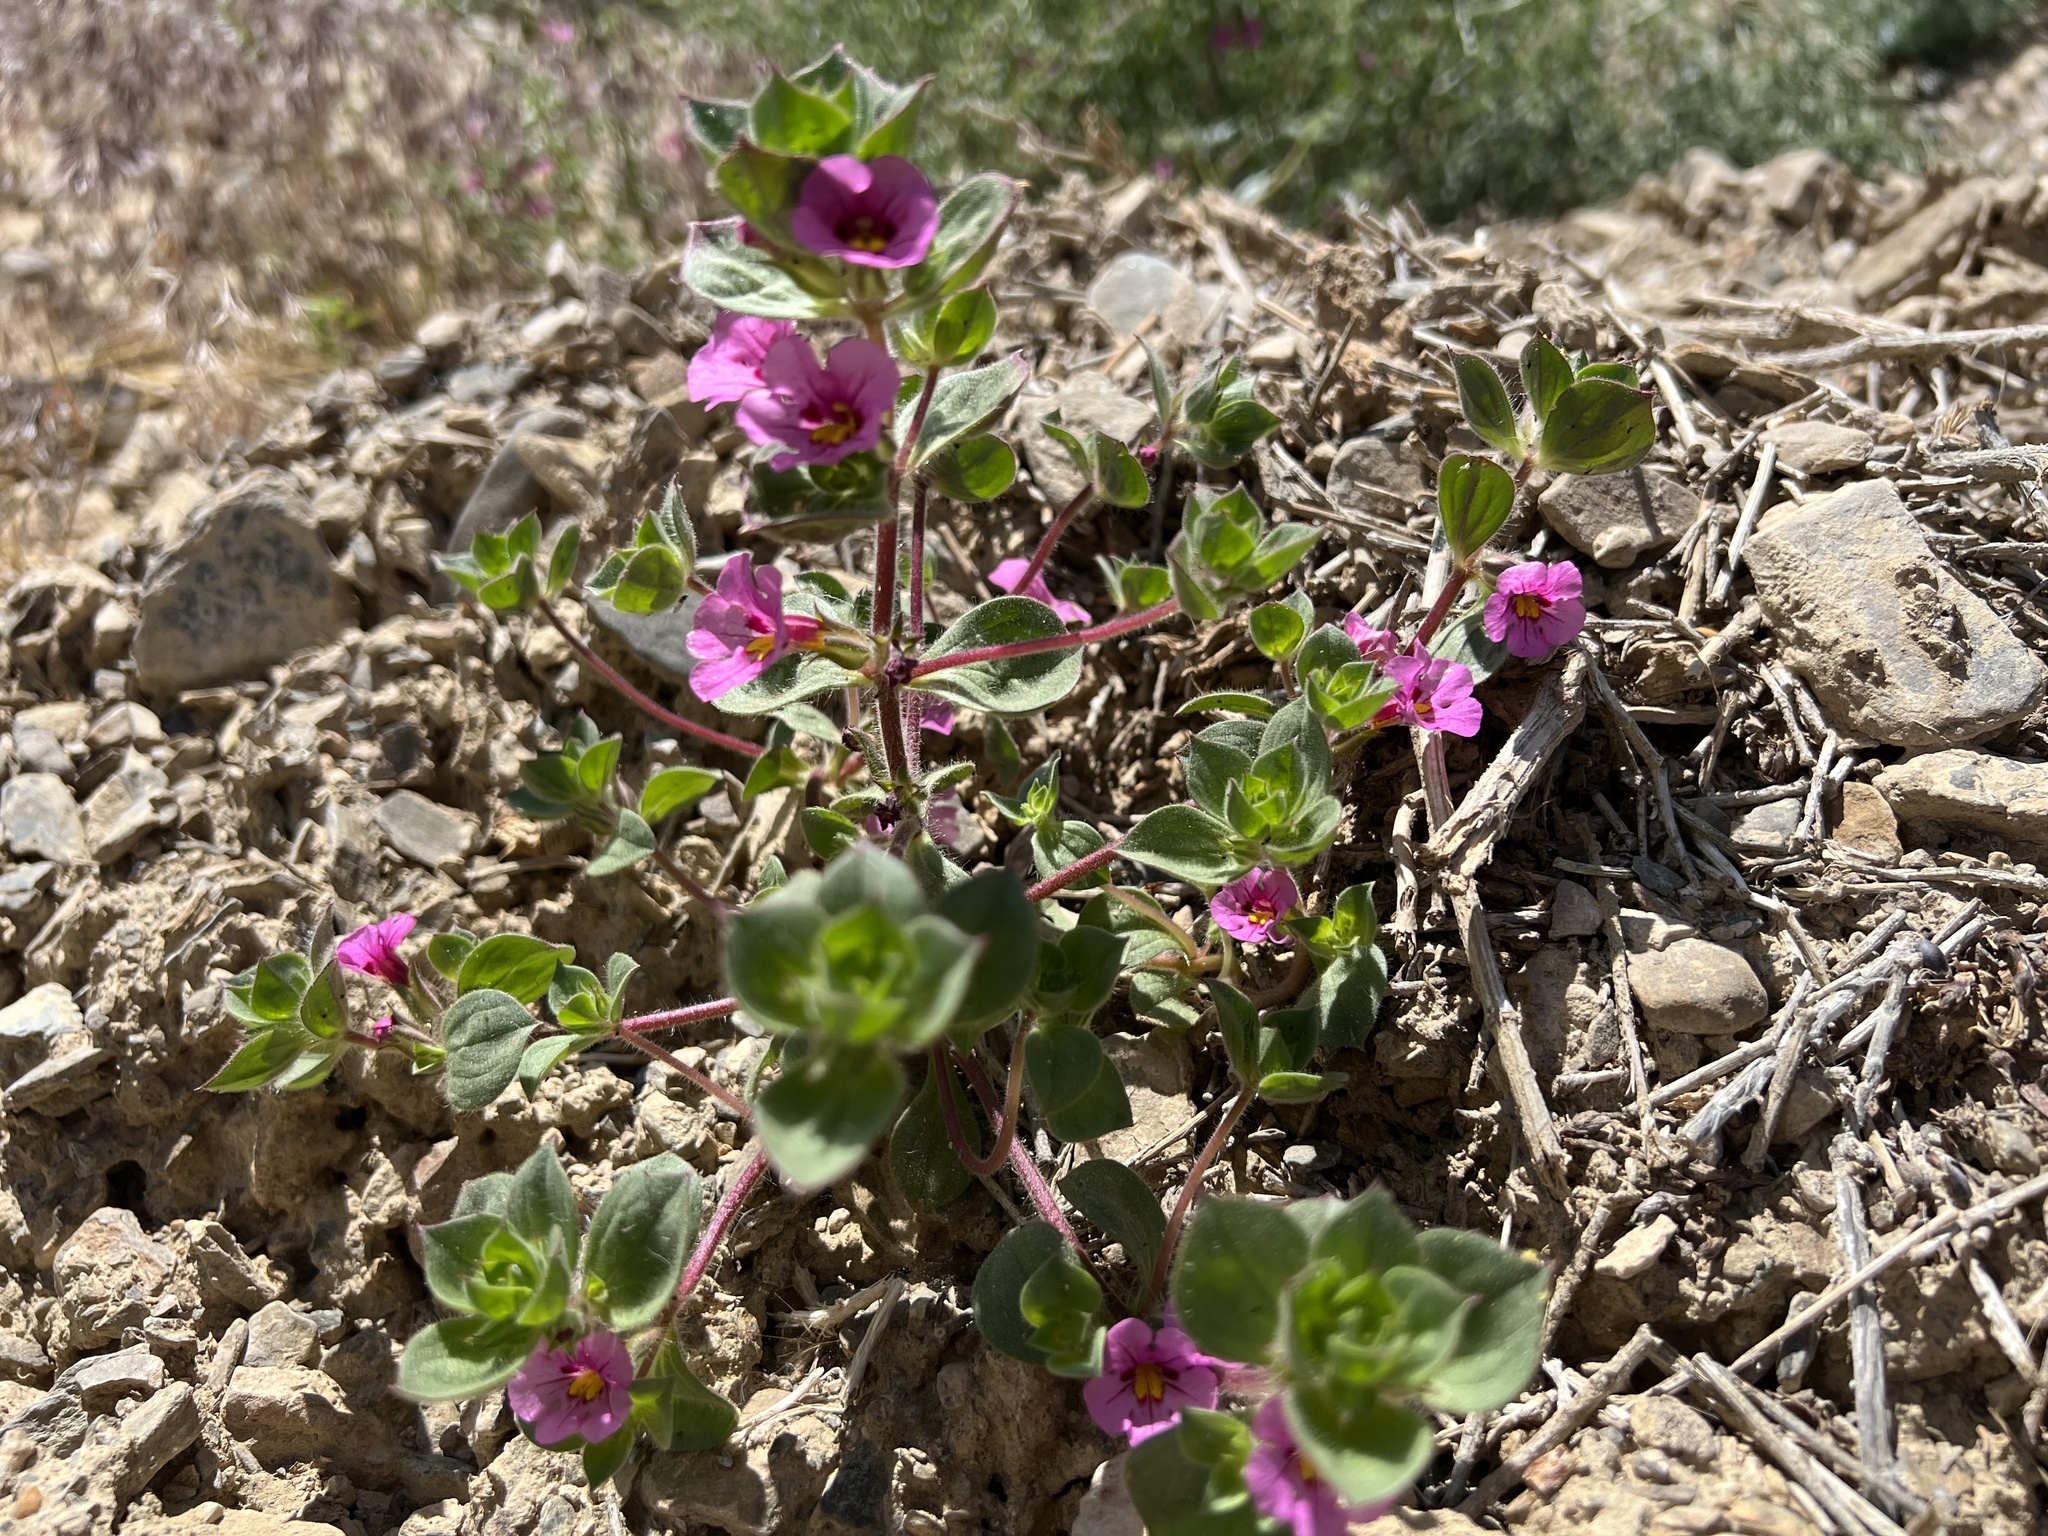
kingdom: Plantae
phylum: Tracheophyta
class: Magnoliopsida
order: Lamiales
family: Phrymaceae
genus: Diplacus
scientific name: Diplacus bigelovii
